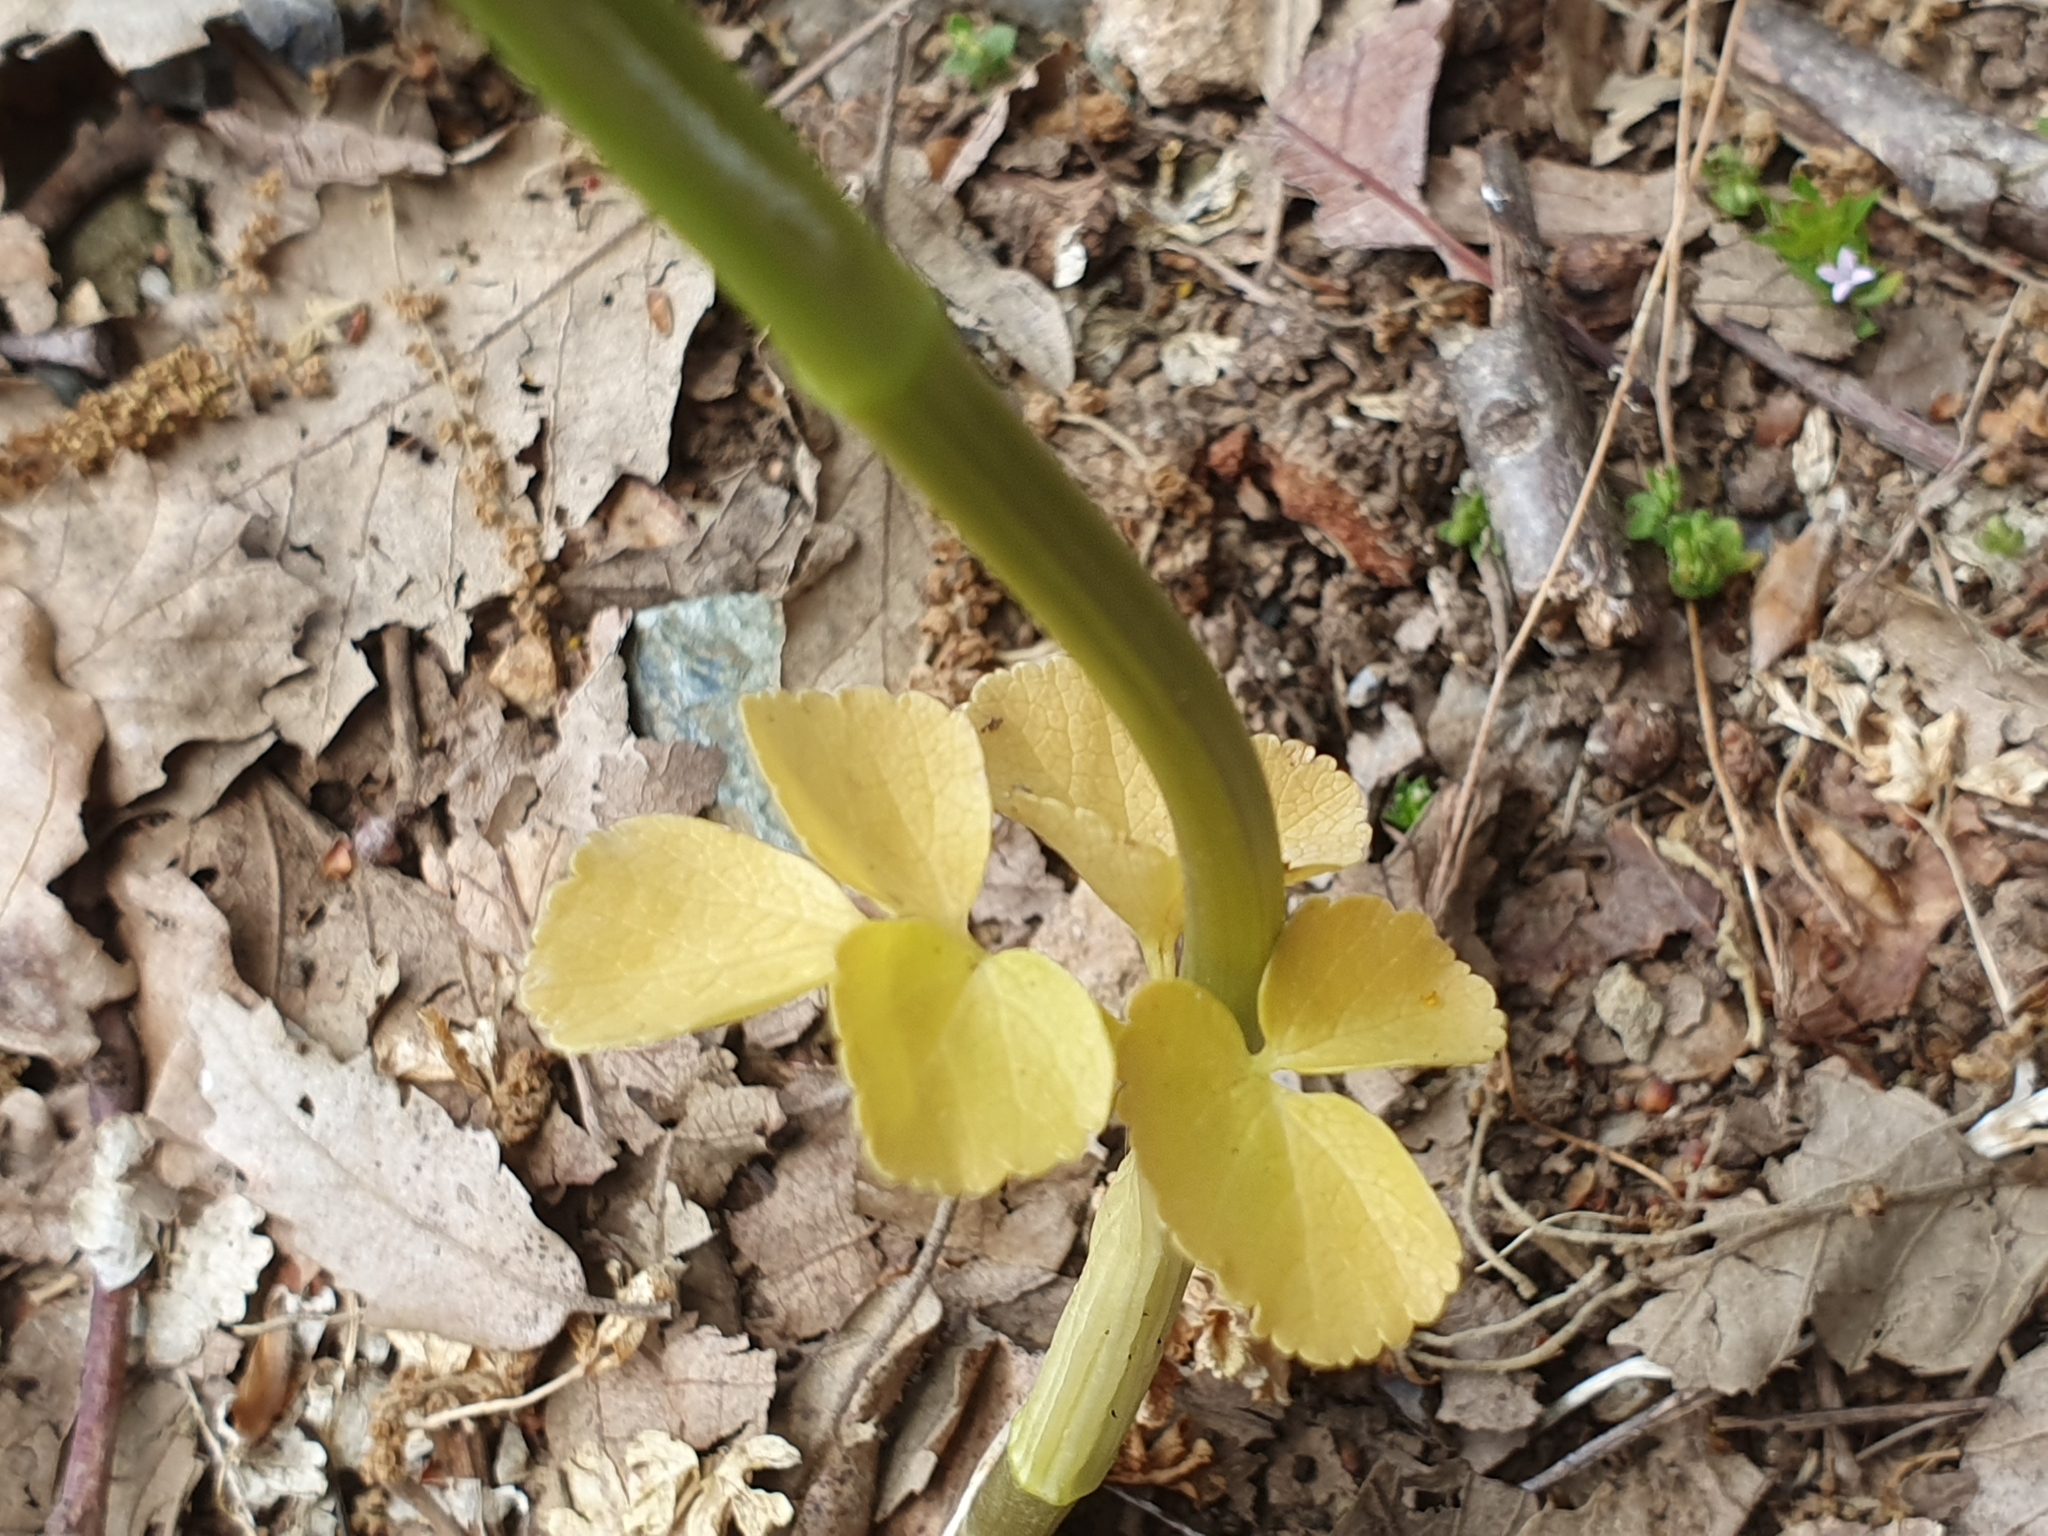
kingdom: Plantae
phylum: Tracheophyta
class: Magnoliopsida
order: Apiales
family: Apiaceae
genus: Smyrnium
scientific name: Smyrnium perfoliatum
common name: Perfoliate alexanders
